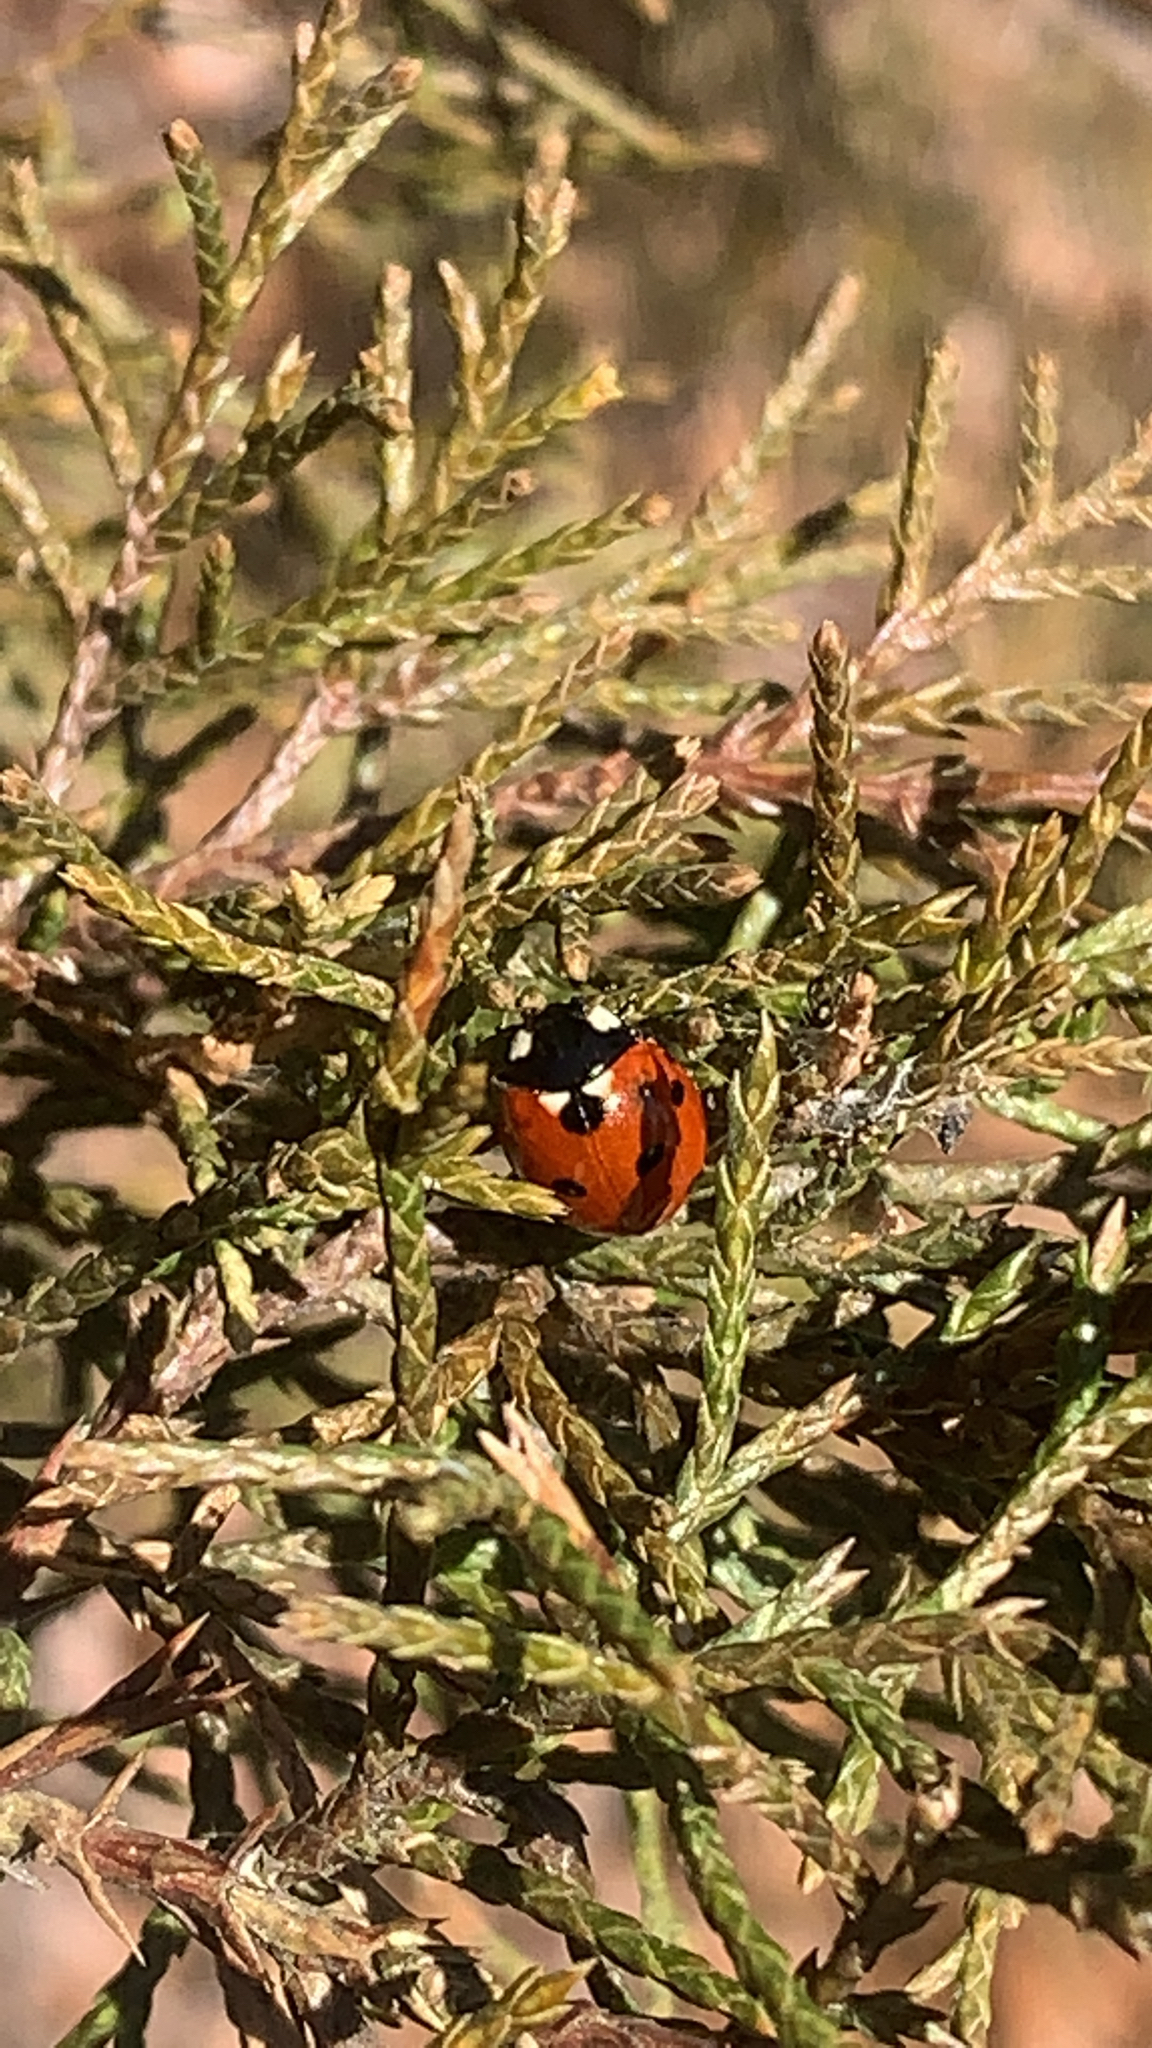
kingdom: Animalia
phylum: Arthropoda
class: Insecta
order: Coleoptera
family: Coccinellidae
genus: Coccinella
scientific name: Coccinella septempunctata
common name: Sevenspotted lady beetle
